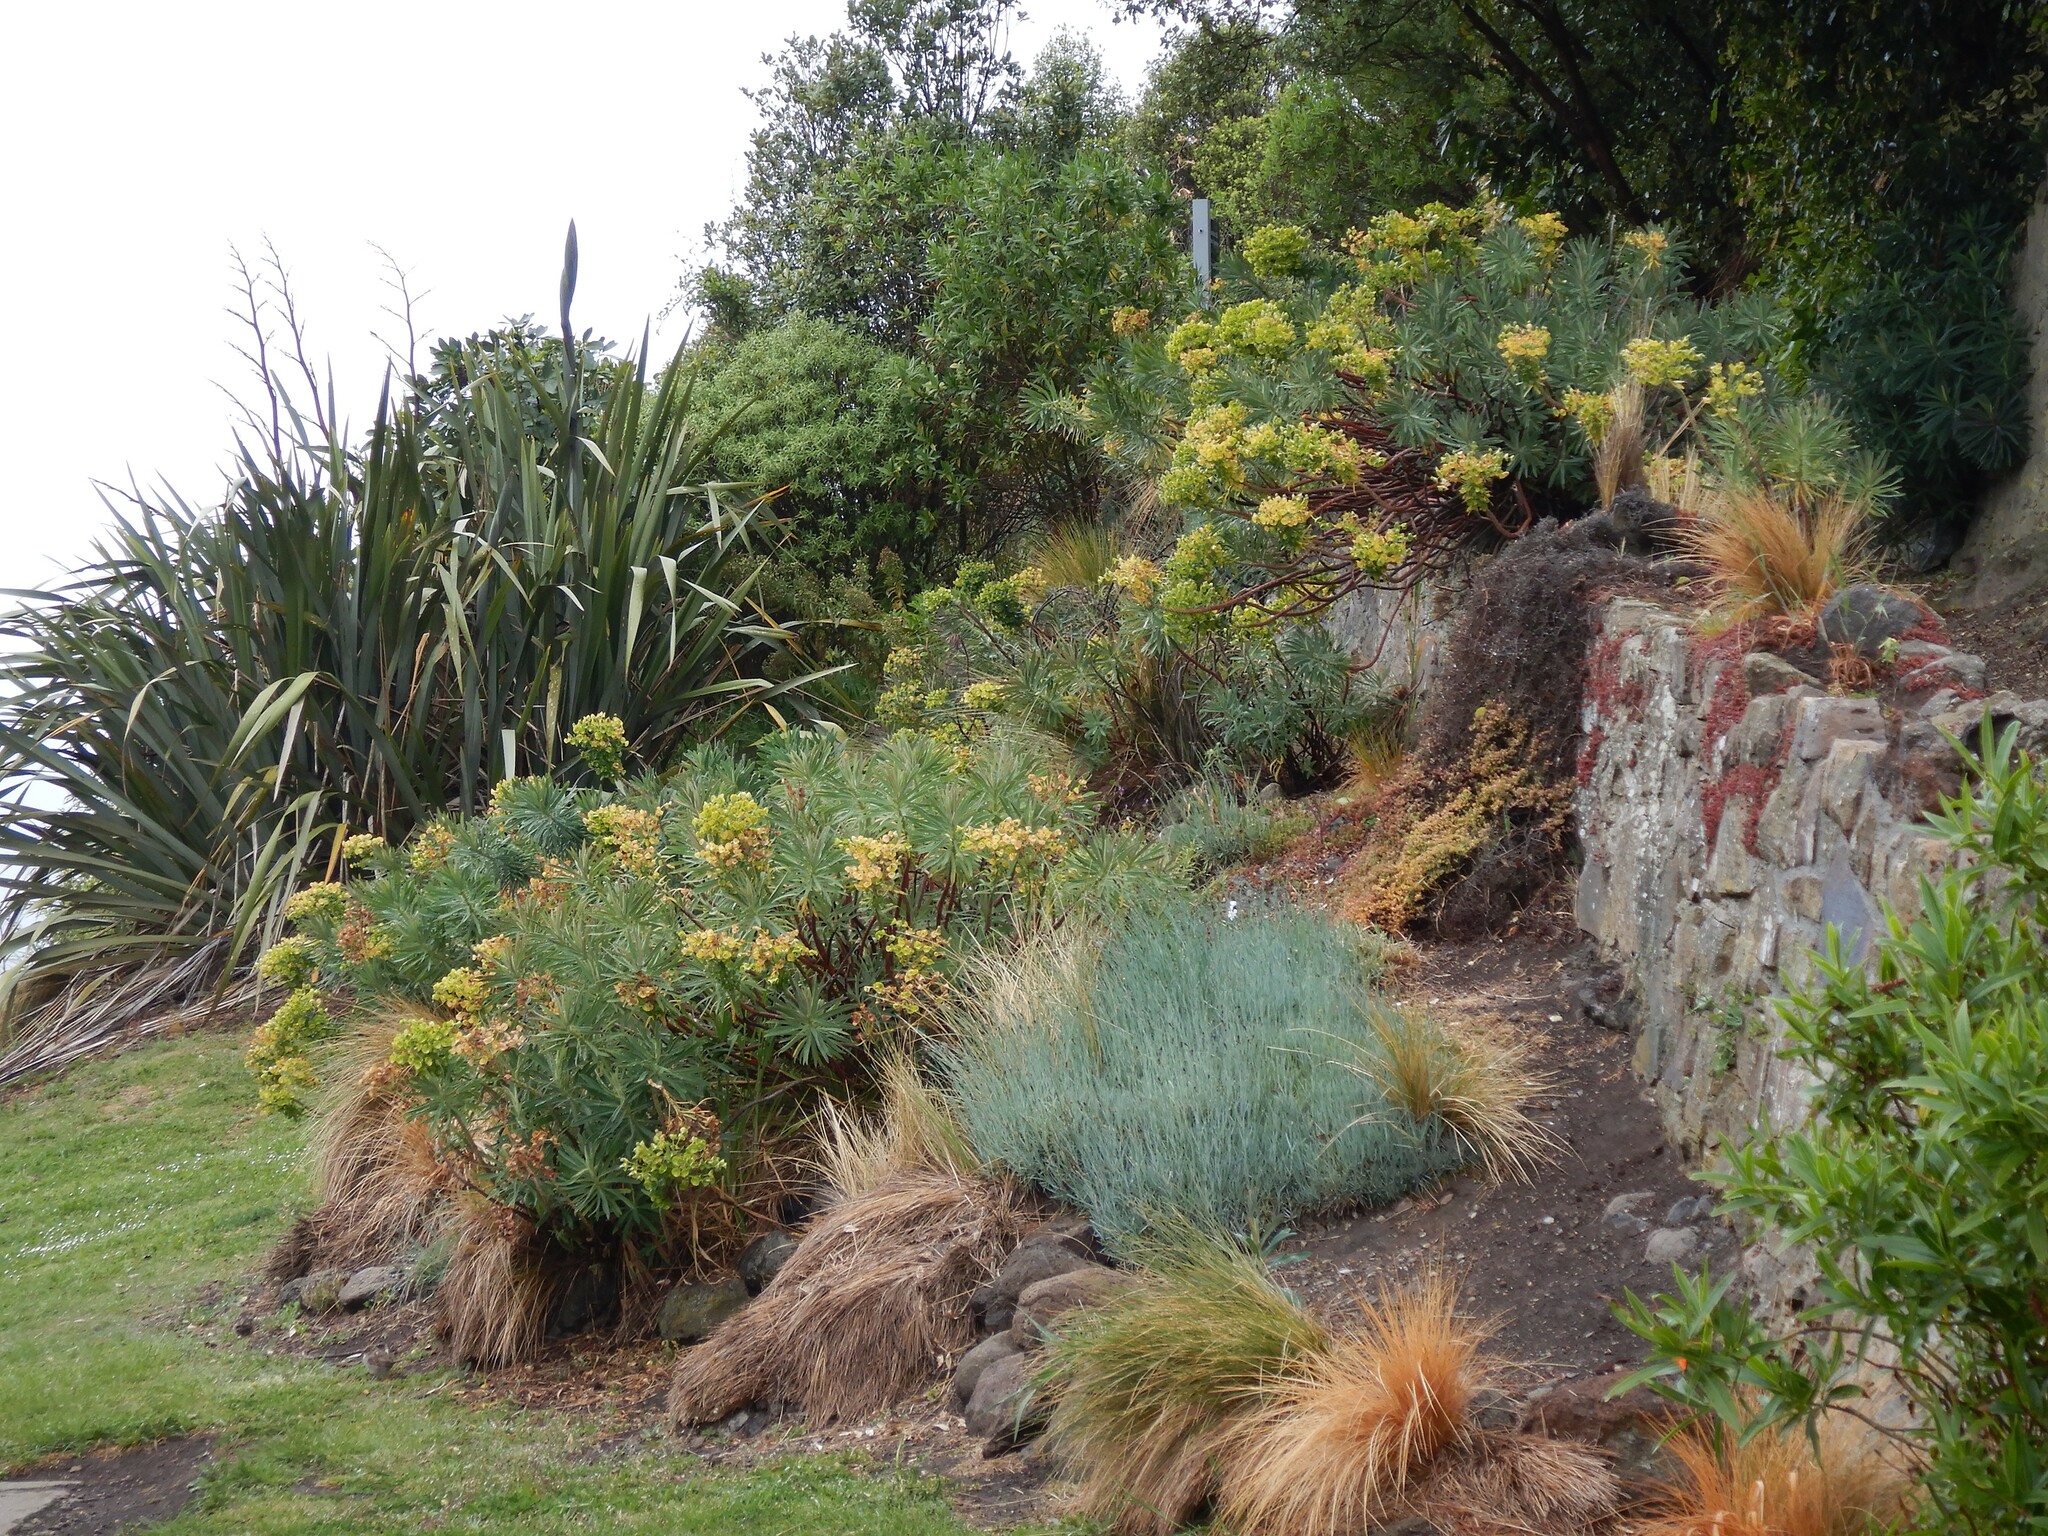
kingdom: Plantae
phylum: Tracheophyta
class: Magnoliopsida
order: Malpighiales
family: Euphorbiaceae
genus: Euphorbia
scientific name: Euphorbia characias
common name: Mediterranean spurge
